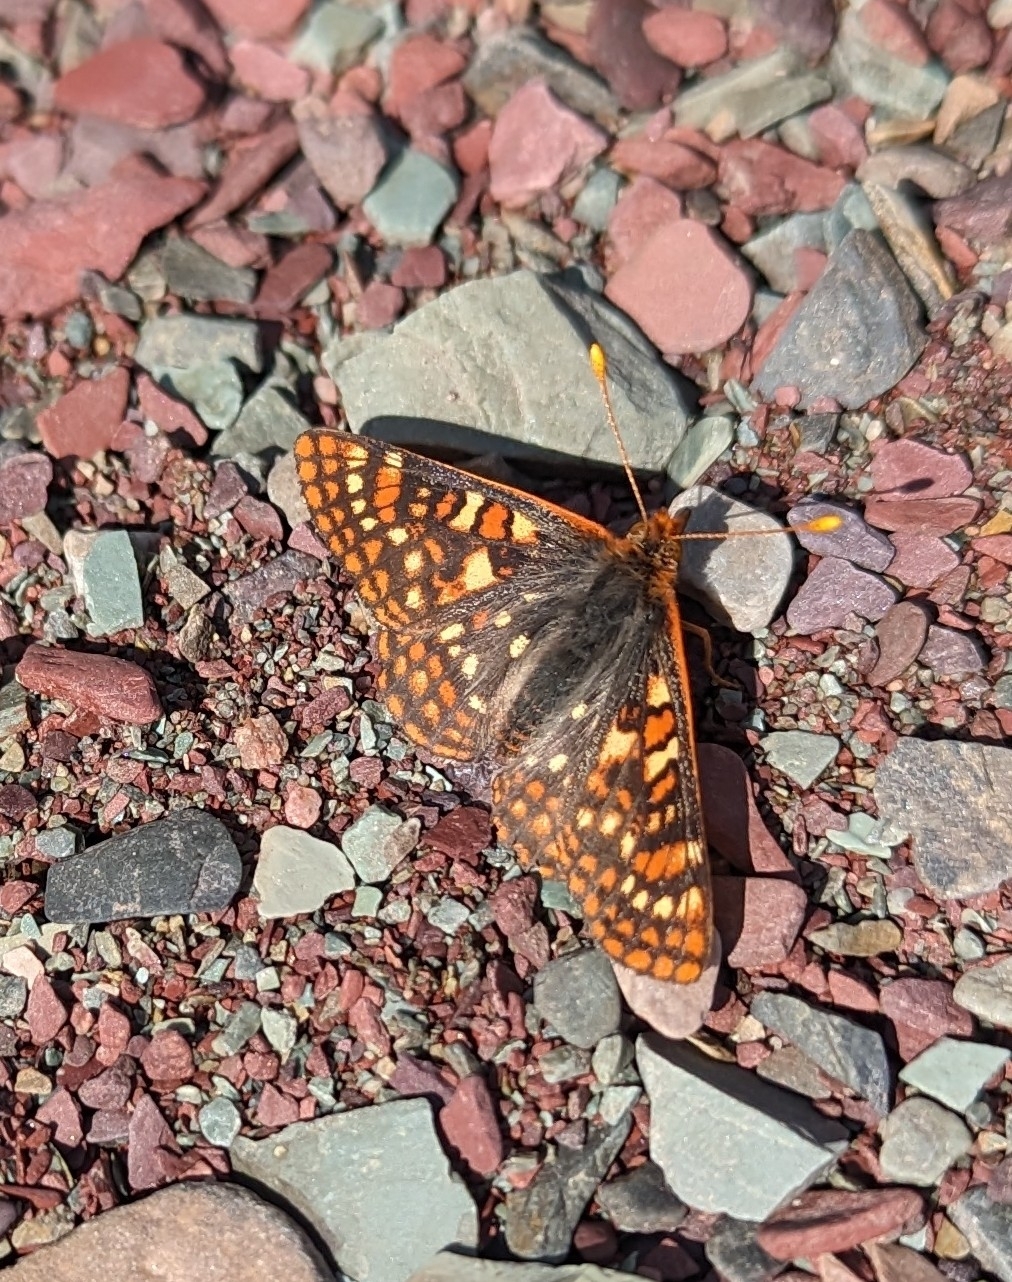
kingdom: Animalia
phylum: Arthropoda
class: Insecta
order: Lepidoptera
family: Nymphalidae
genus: Occidryas
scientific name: Occidryas anicia
